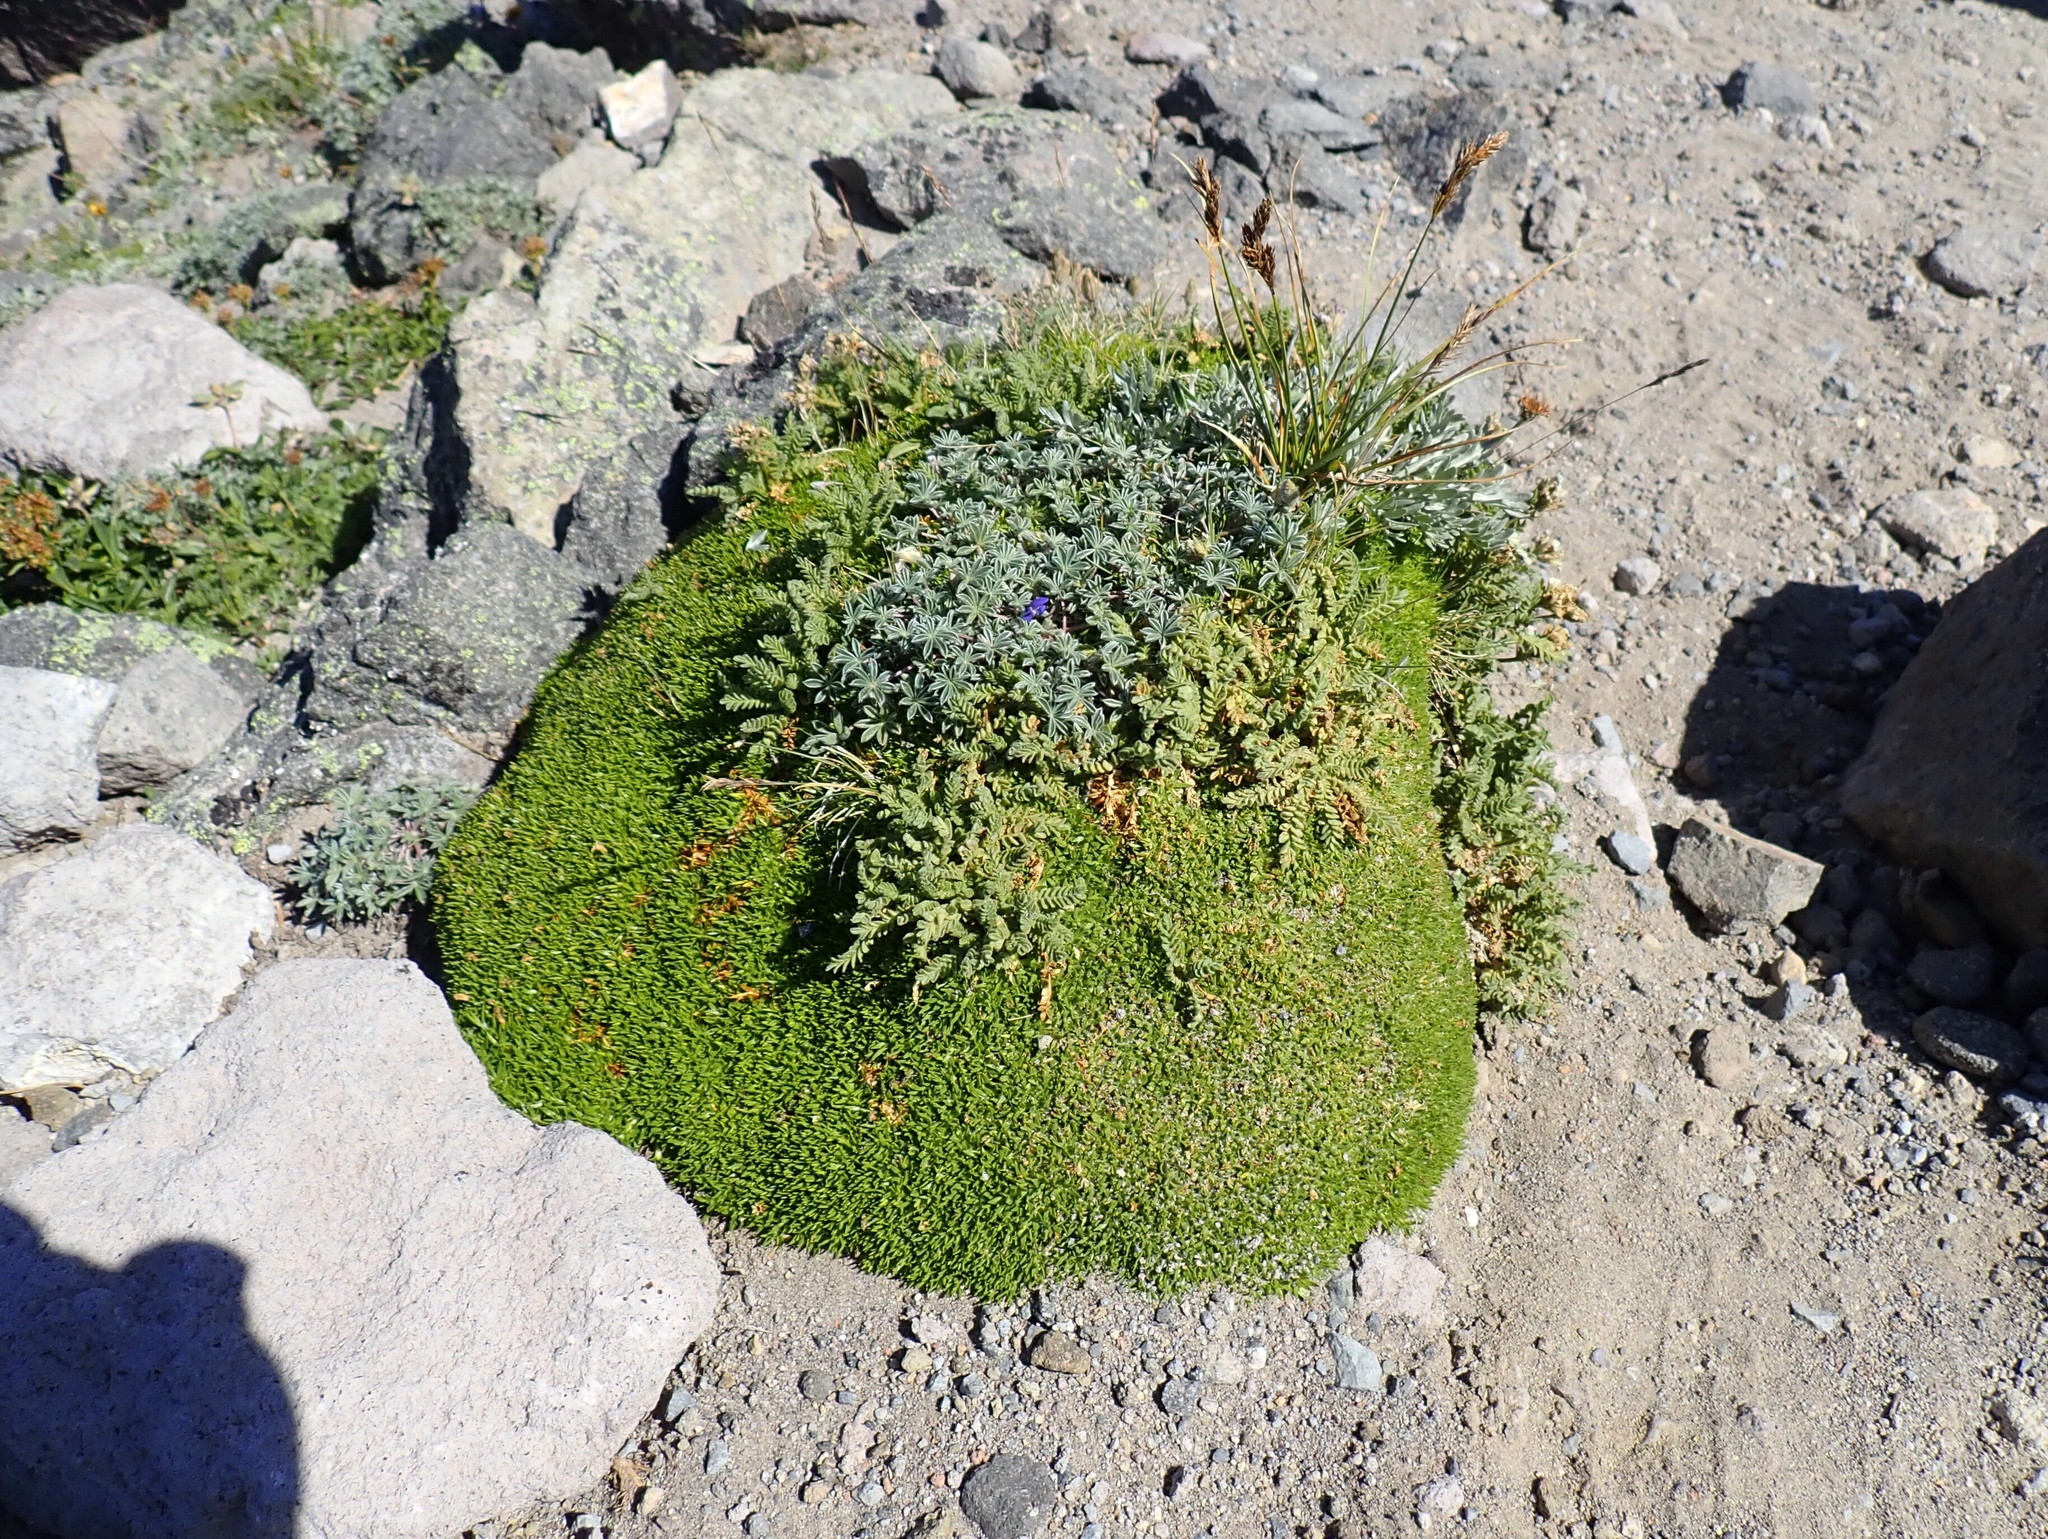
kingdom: Plantae
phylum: Tracheophyta
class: Magnoliopsida
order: Caryophyllales
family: Caryophyllaceae
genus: Silene
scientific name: Silene acaulis
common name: Moss campion
